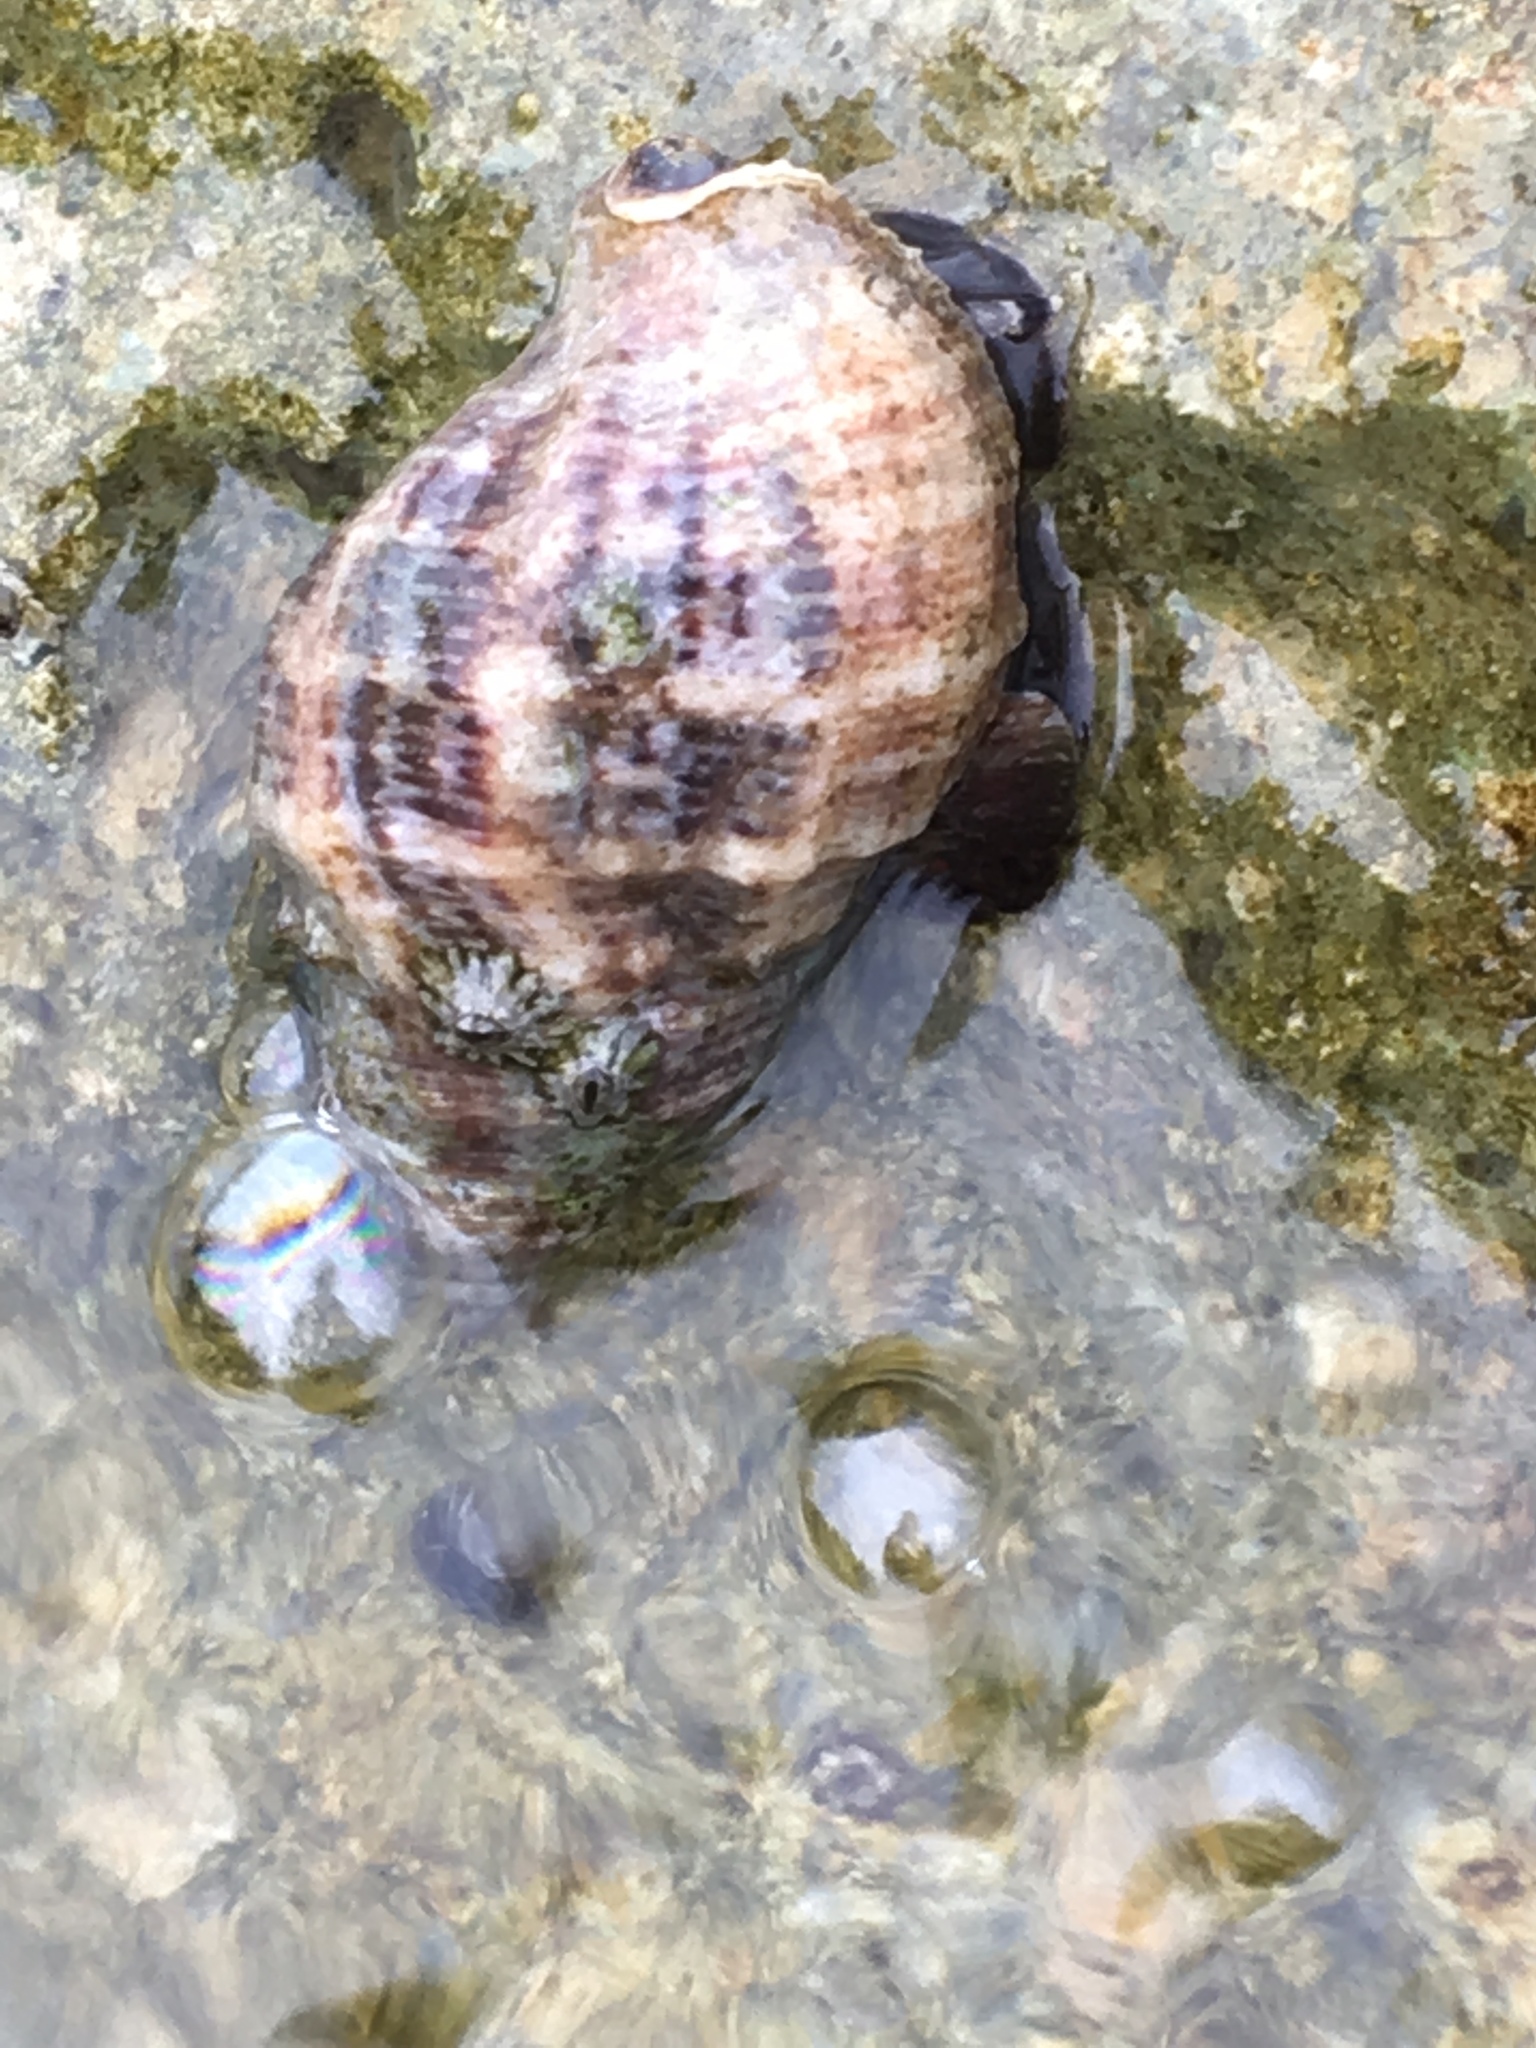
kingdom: Animalia
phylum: Mollusca
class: Gastropoda
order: Neogastropoda
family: Muricidae
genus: Stramonita
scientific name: Stramonita floridana
